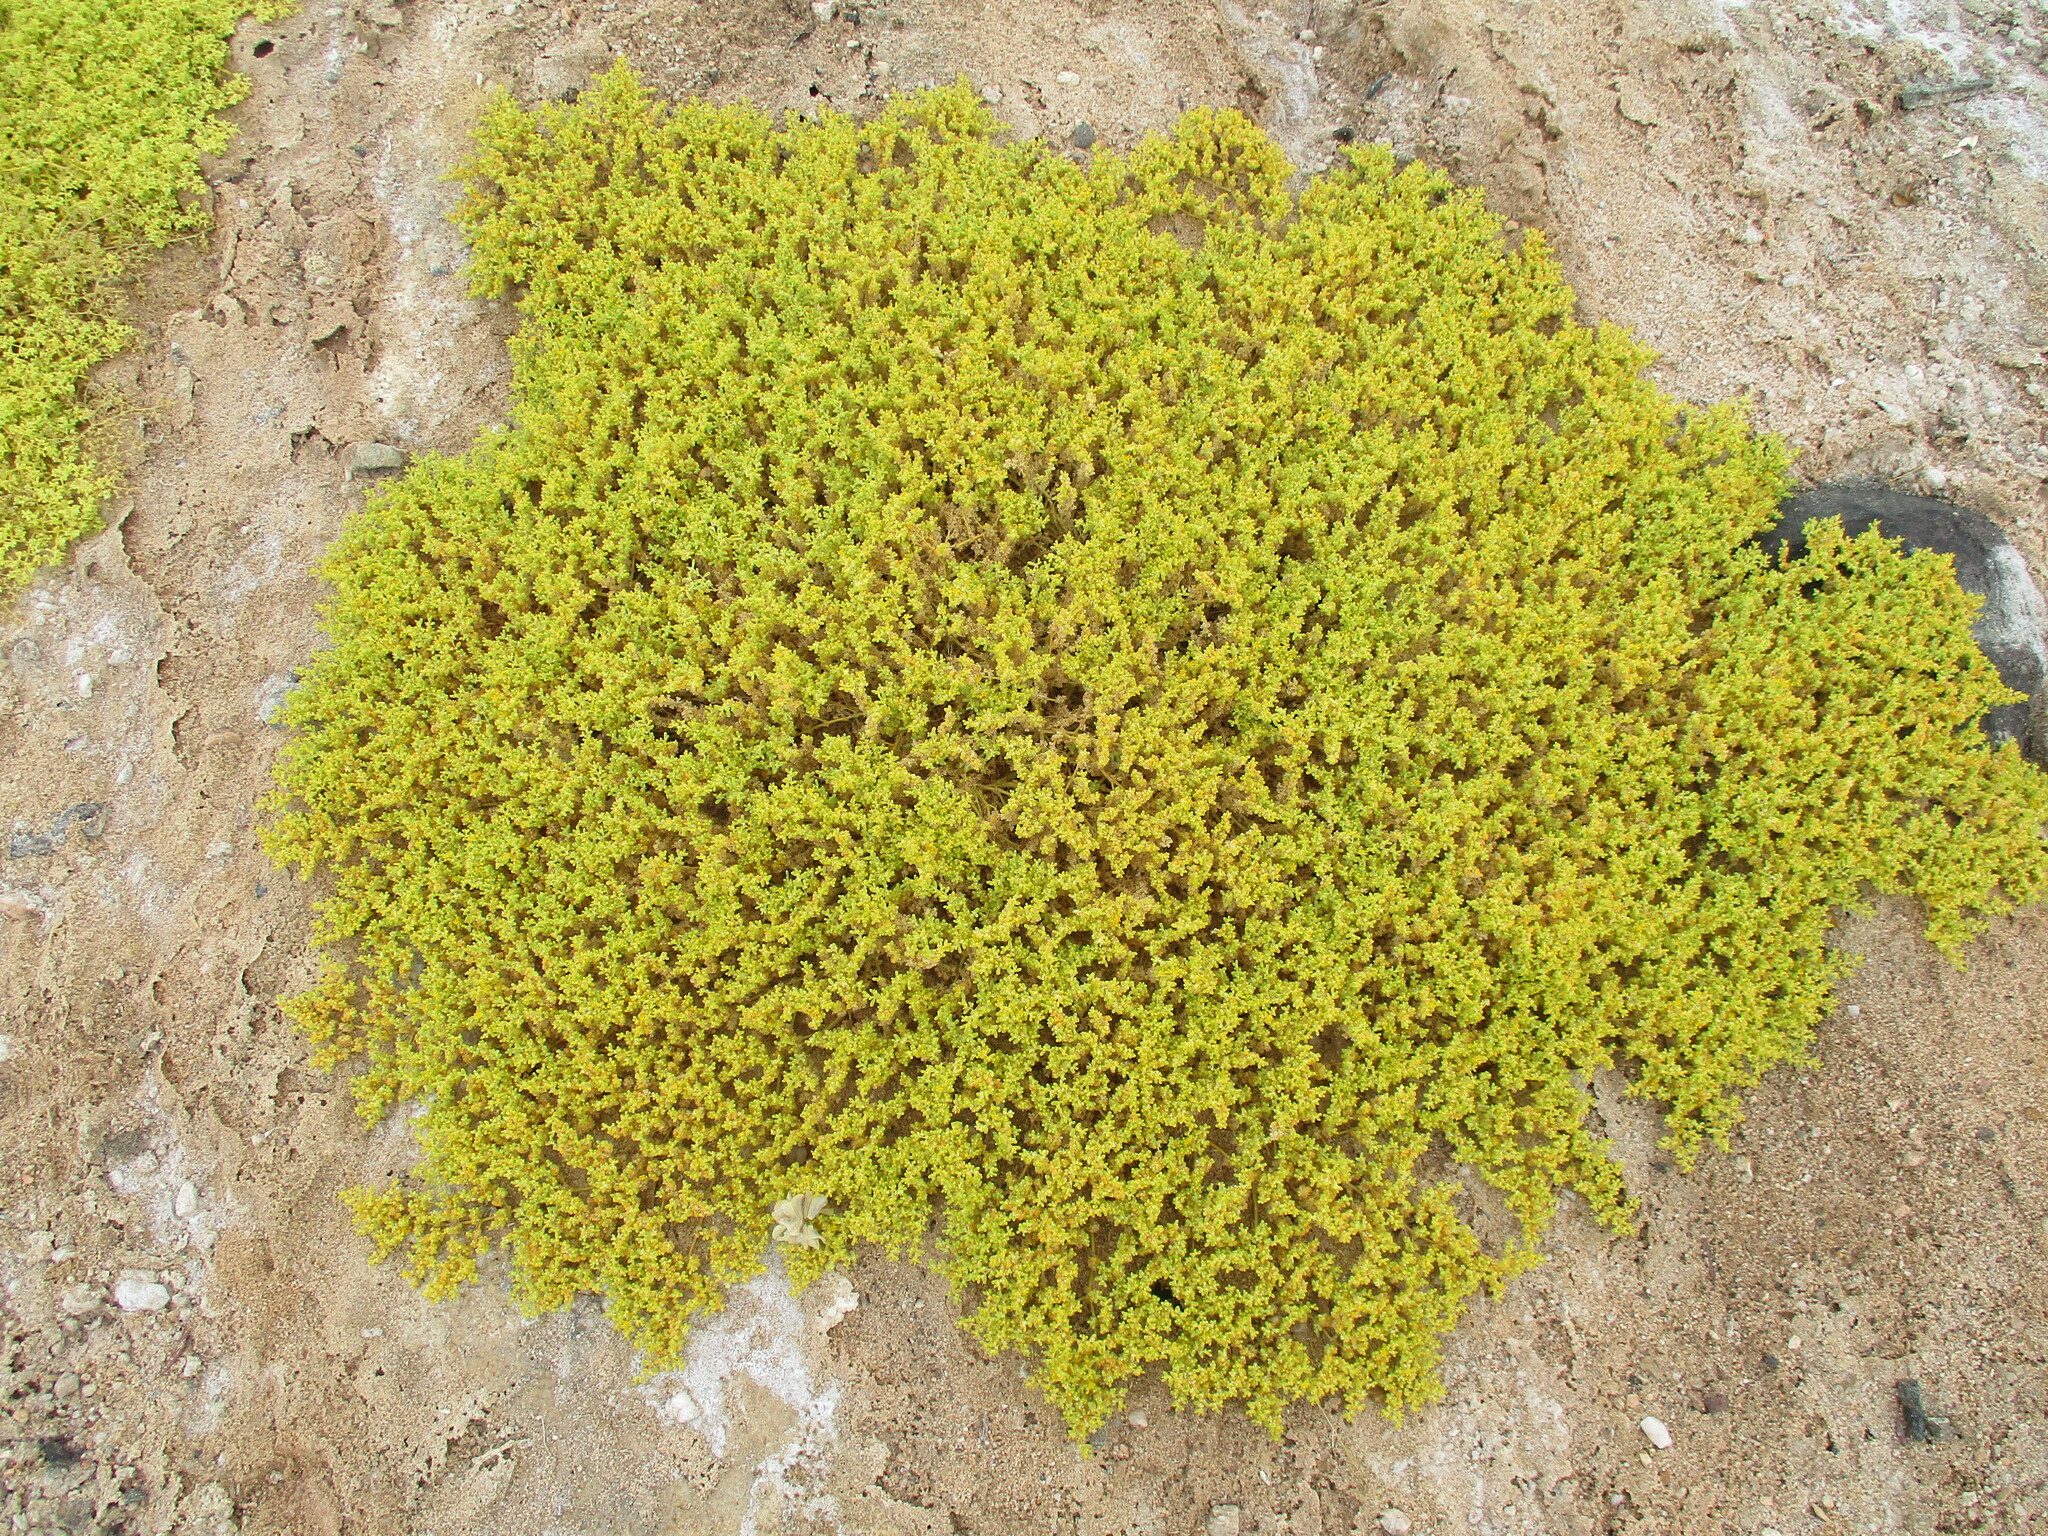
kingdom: Plantae
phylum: Tracheophyta
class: Magnoliopsida
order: Zygophyllales
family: Zygophyllaceae
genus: Tetraena
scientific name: Tetraena simplex
